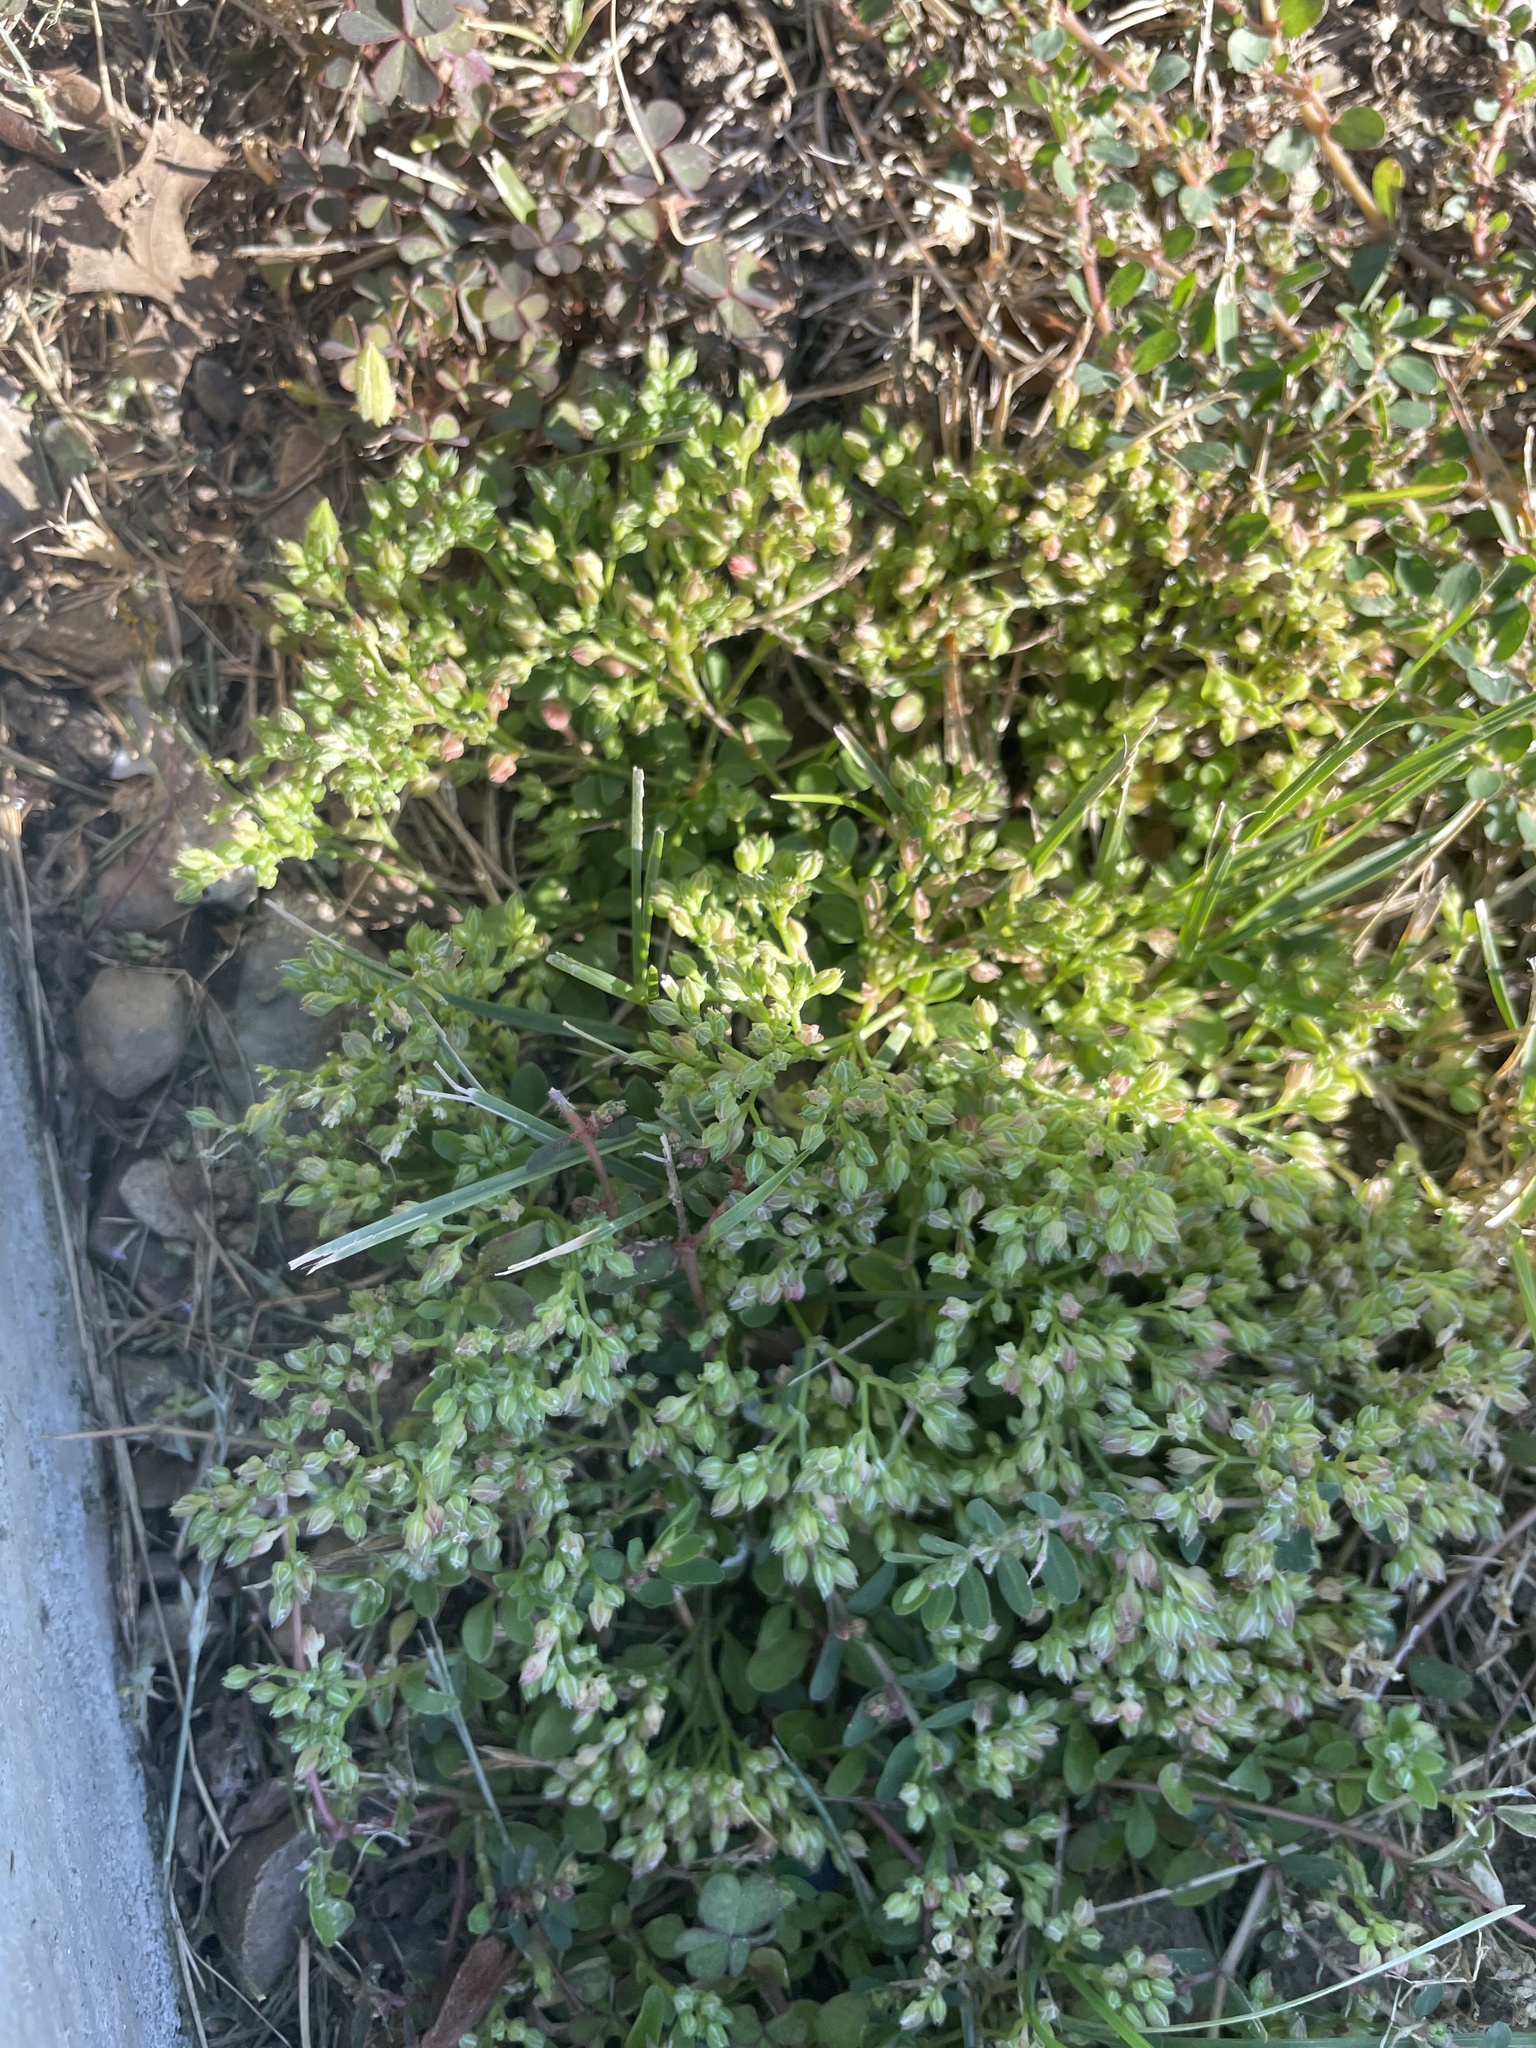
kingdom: Plantae
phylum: Tracheophyta
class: Magnoliopsida
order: Caryophyllales
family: Caryophyllaceae
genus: Polycarpon
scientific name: Polycarpon tetraphyllum
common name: Four-leaved all-seed
